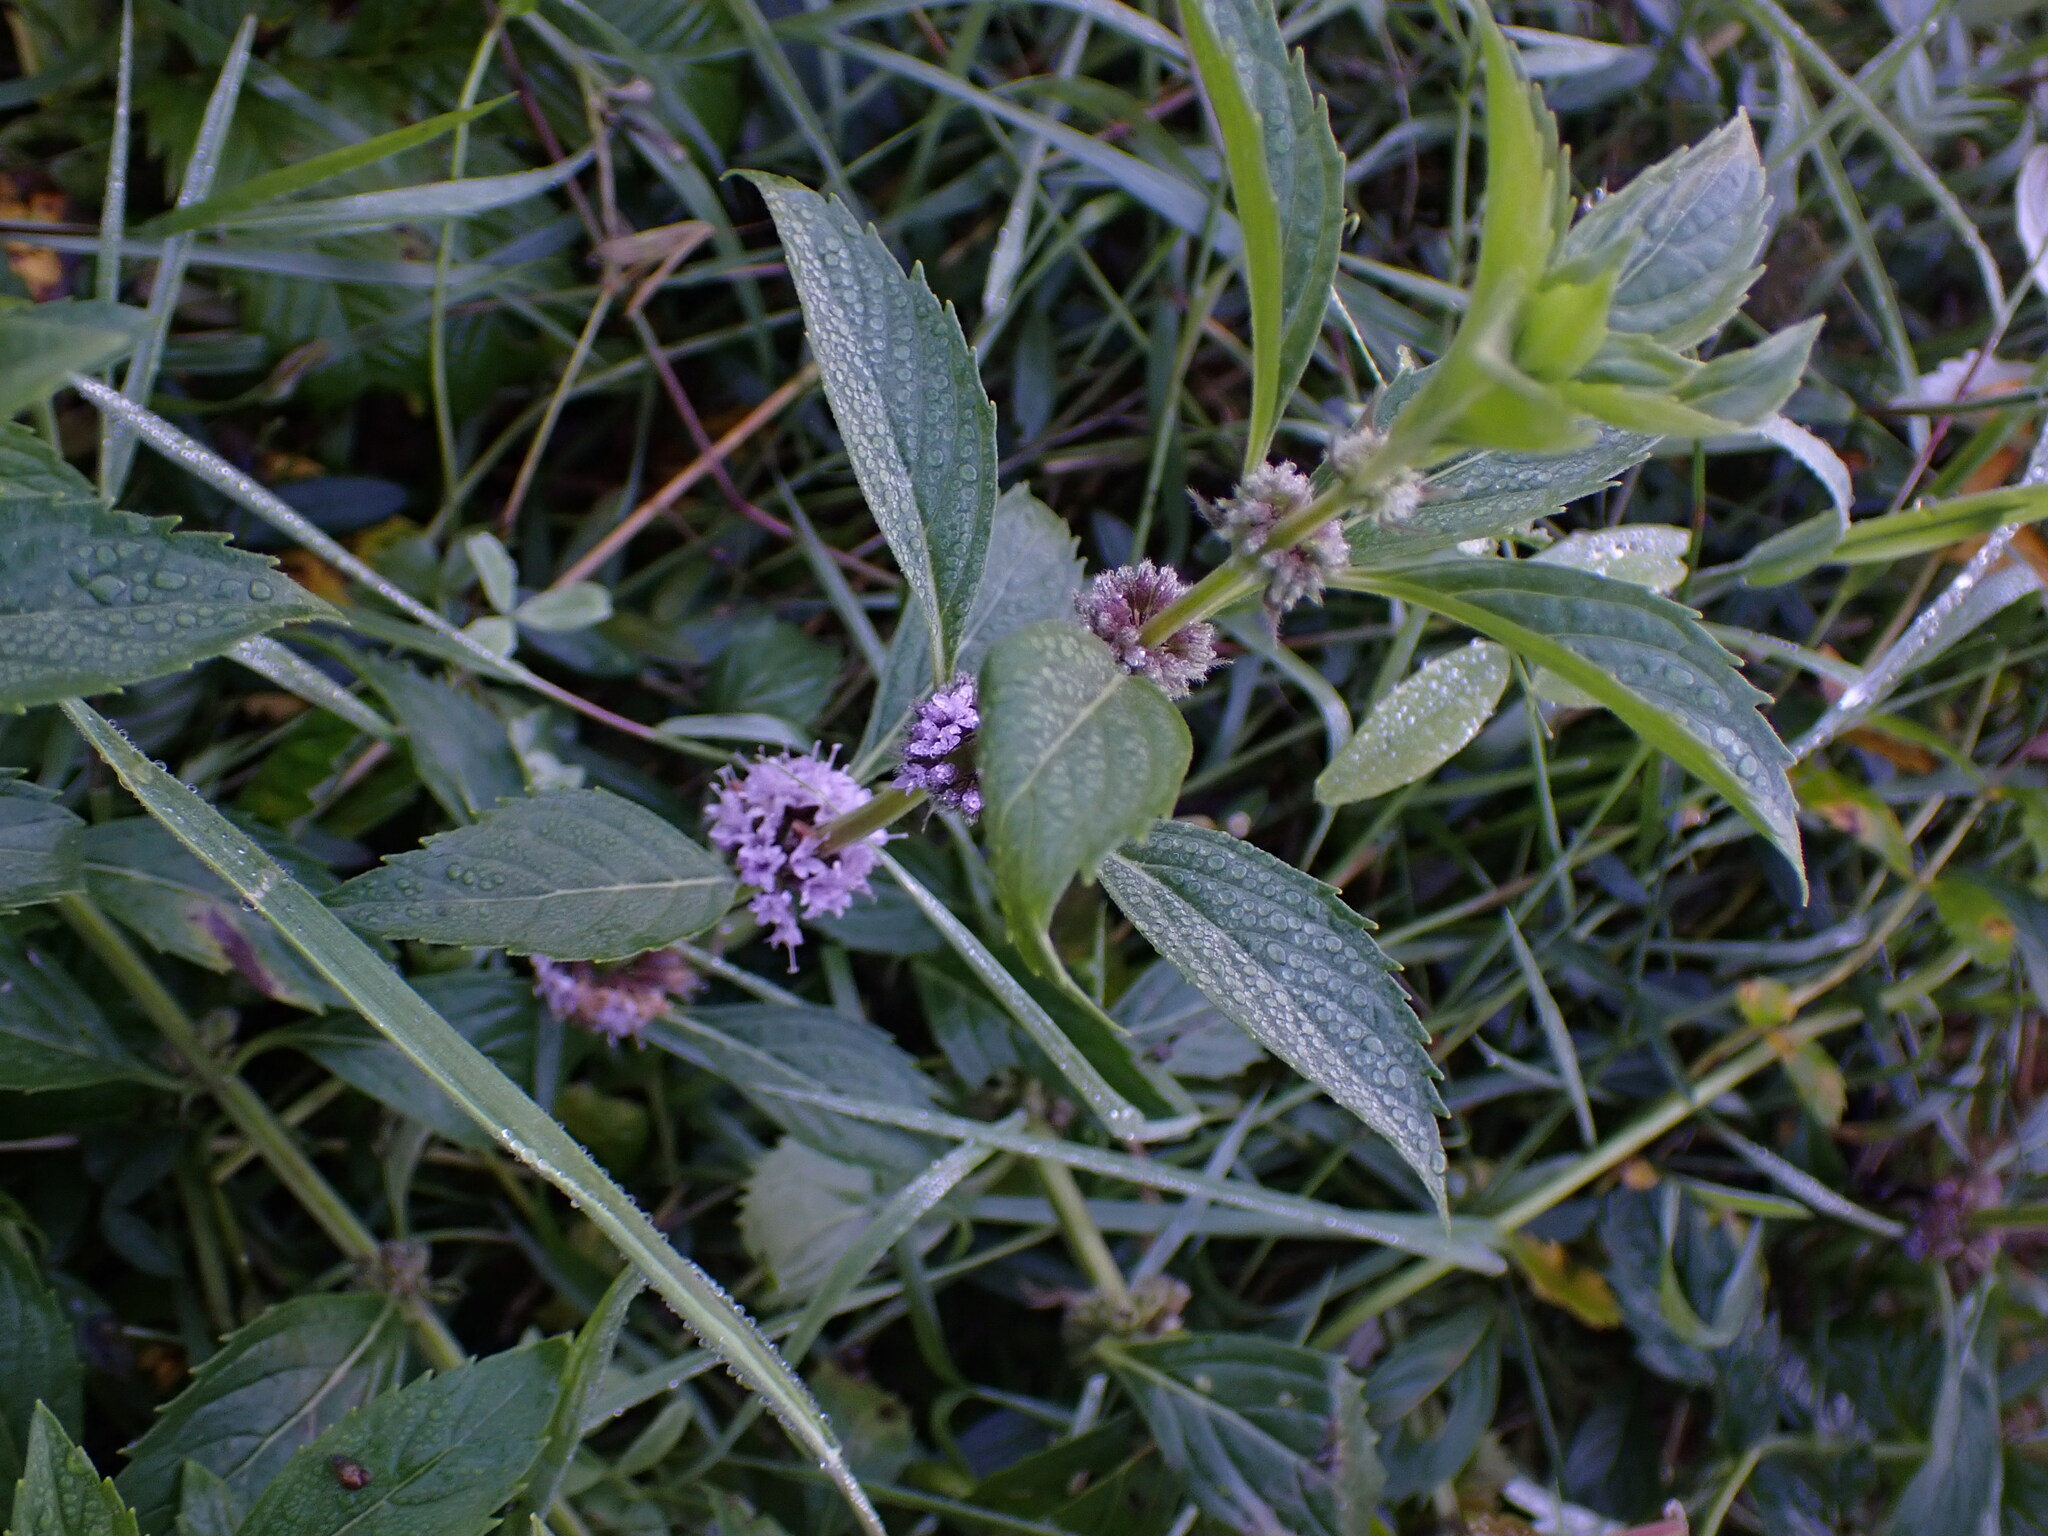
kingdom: Plantae
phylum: Tracheophyta
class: Magnoliopsida
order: Lamiales
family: Lamiaceae
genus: Mentha
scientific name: Mentha canadensis
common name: American corn mint
